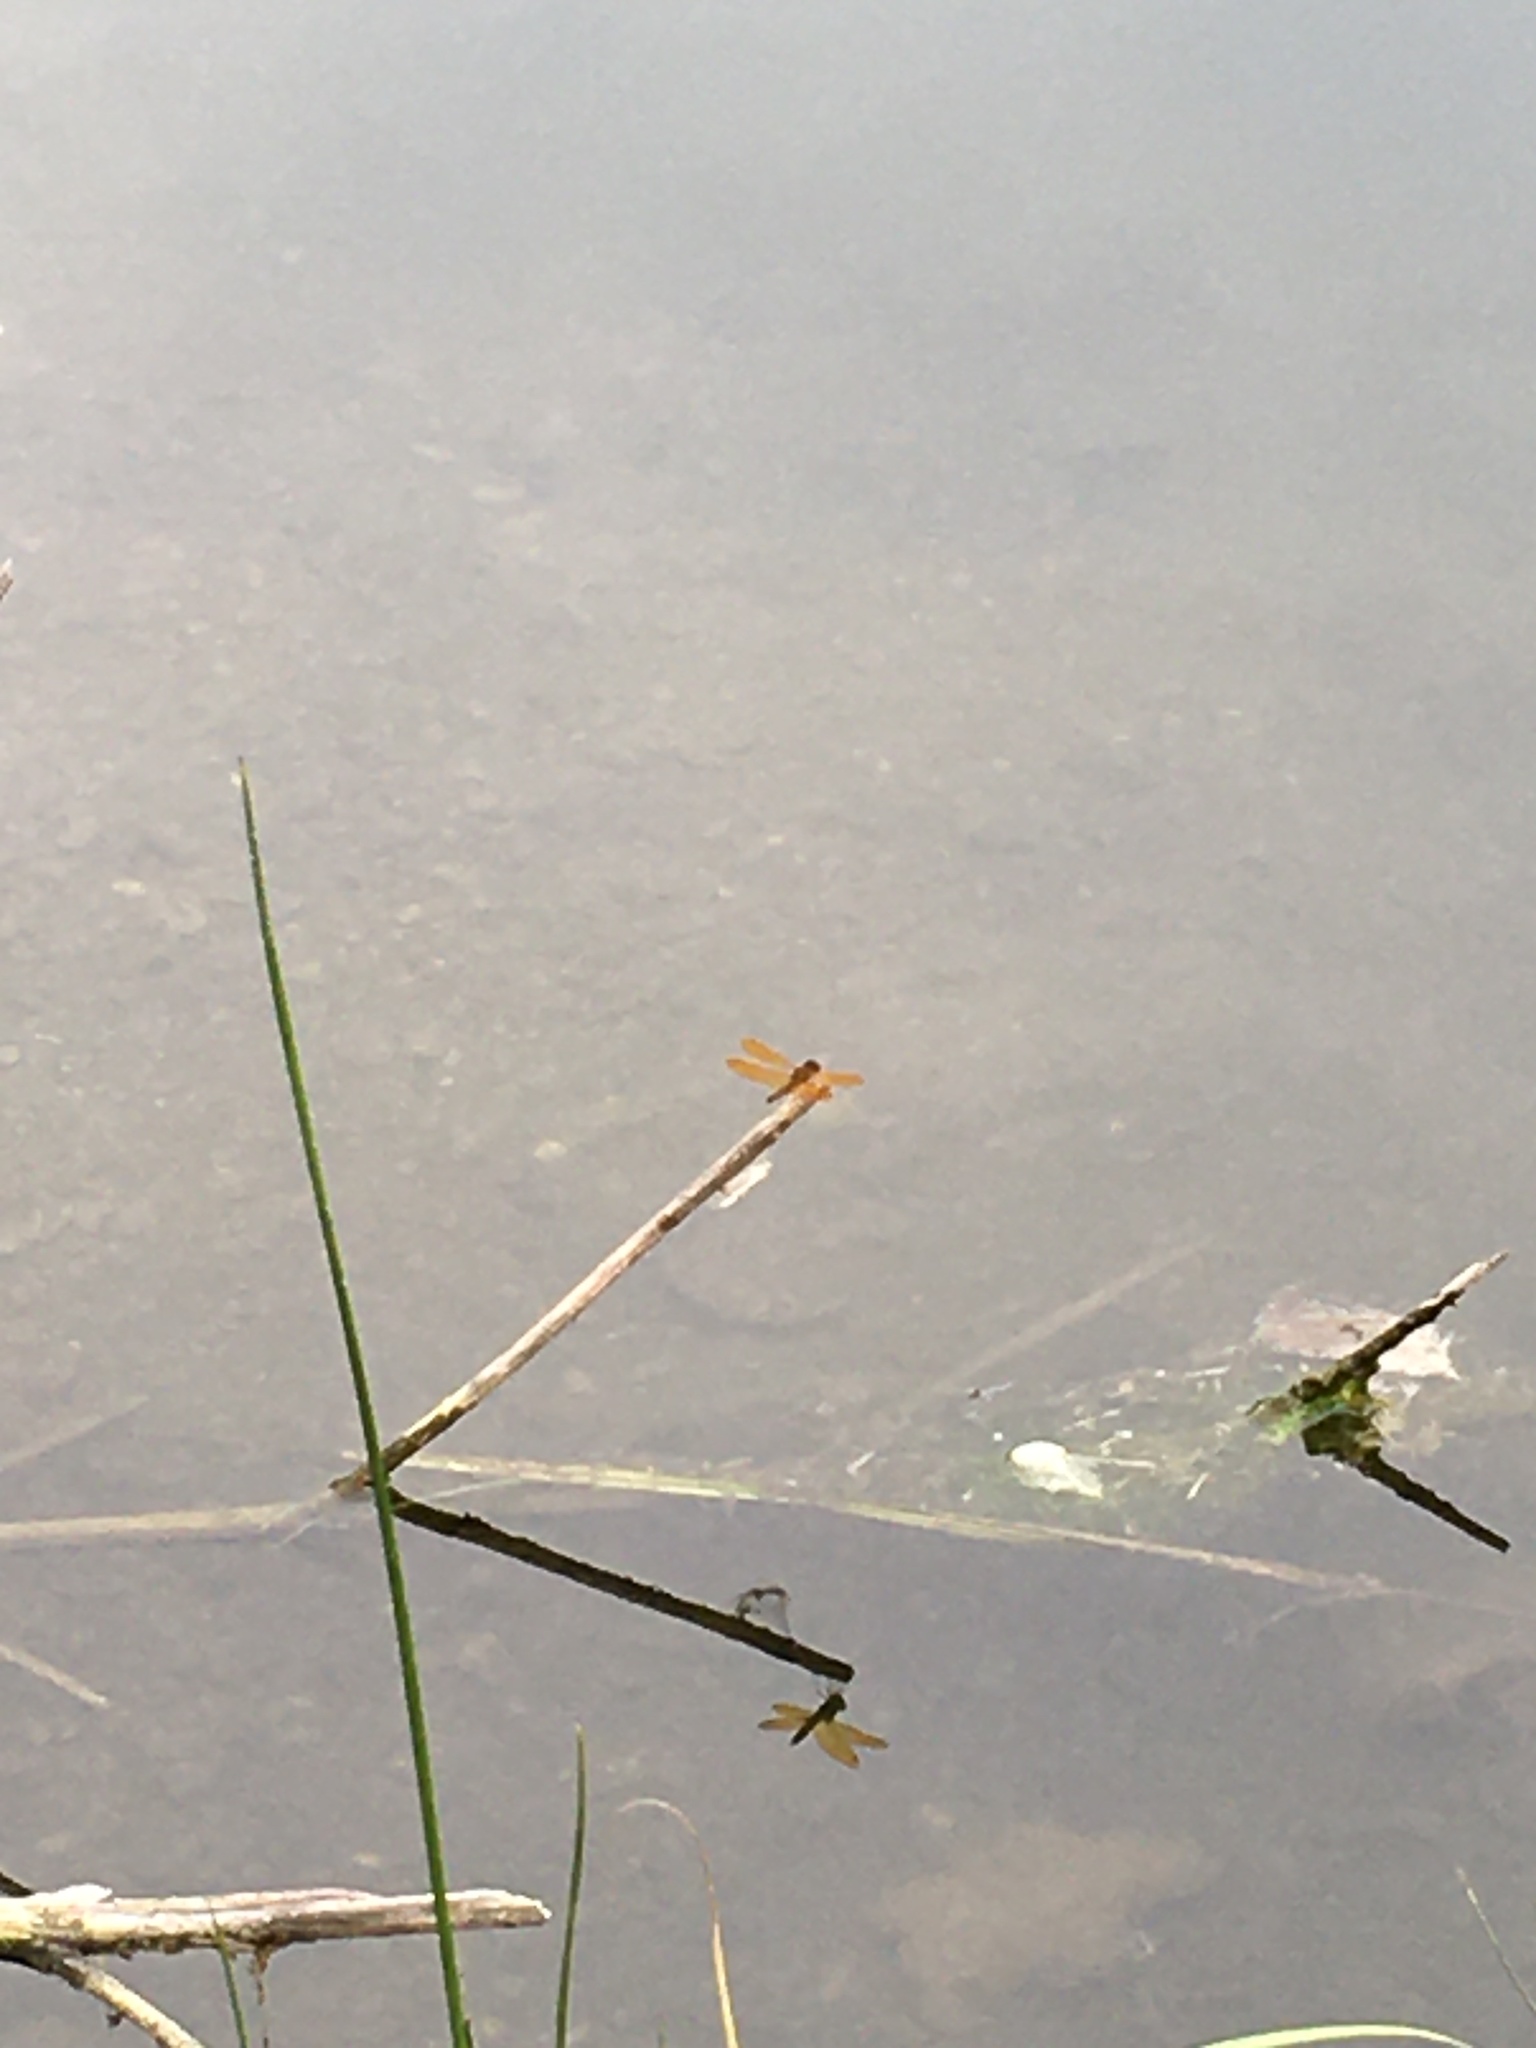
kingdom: Animalia
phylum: Arthropoda
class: Insecta
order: Odonata
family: Libellulidae
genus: Perithemis
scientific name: Perithemis tenera
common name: Eastern amberwing
